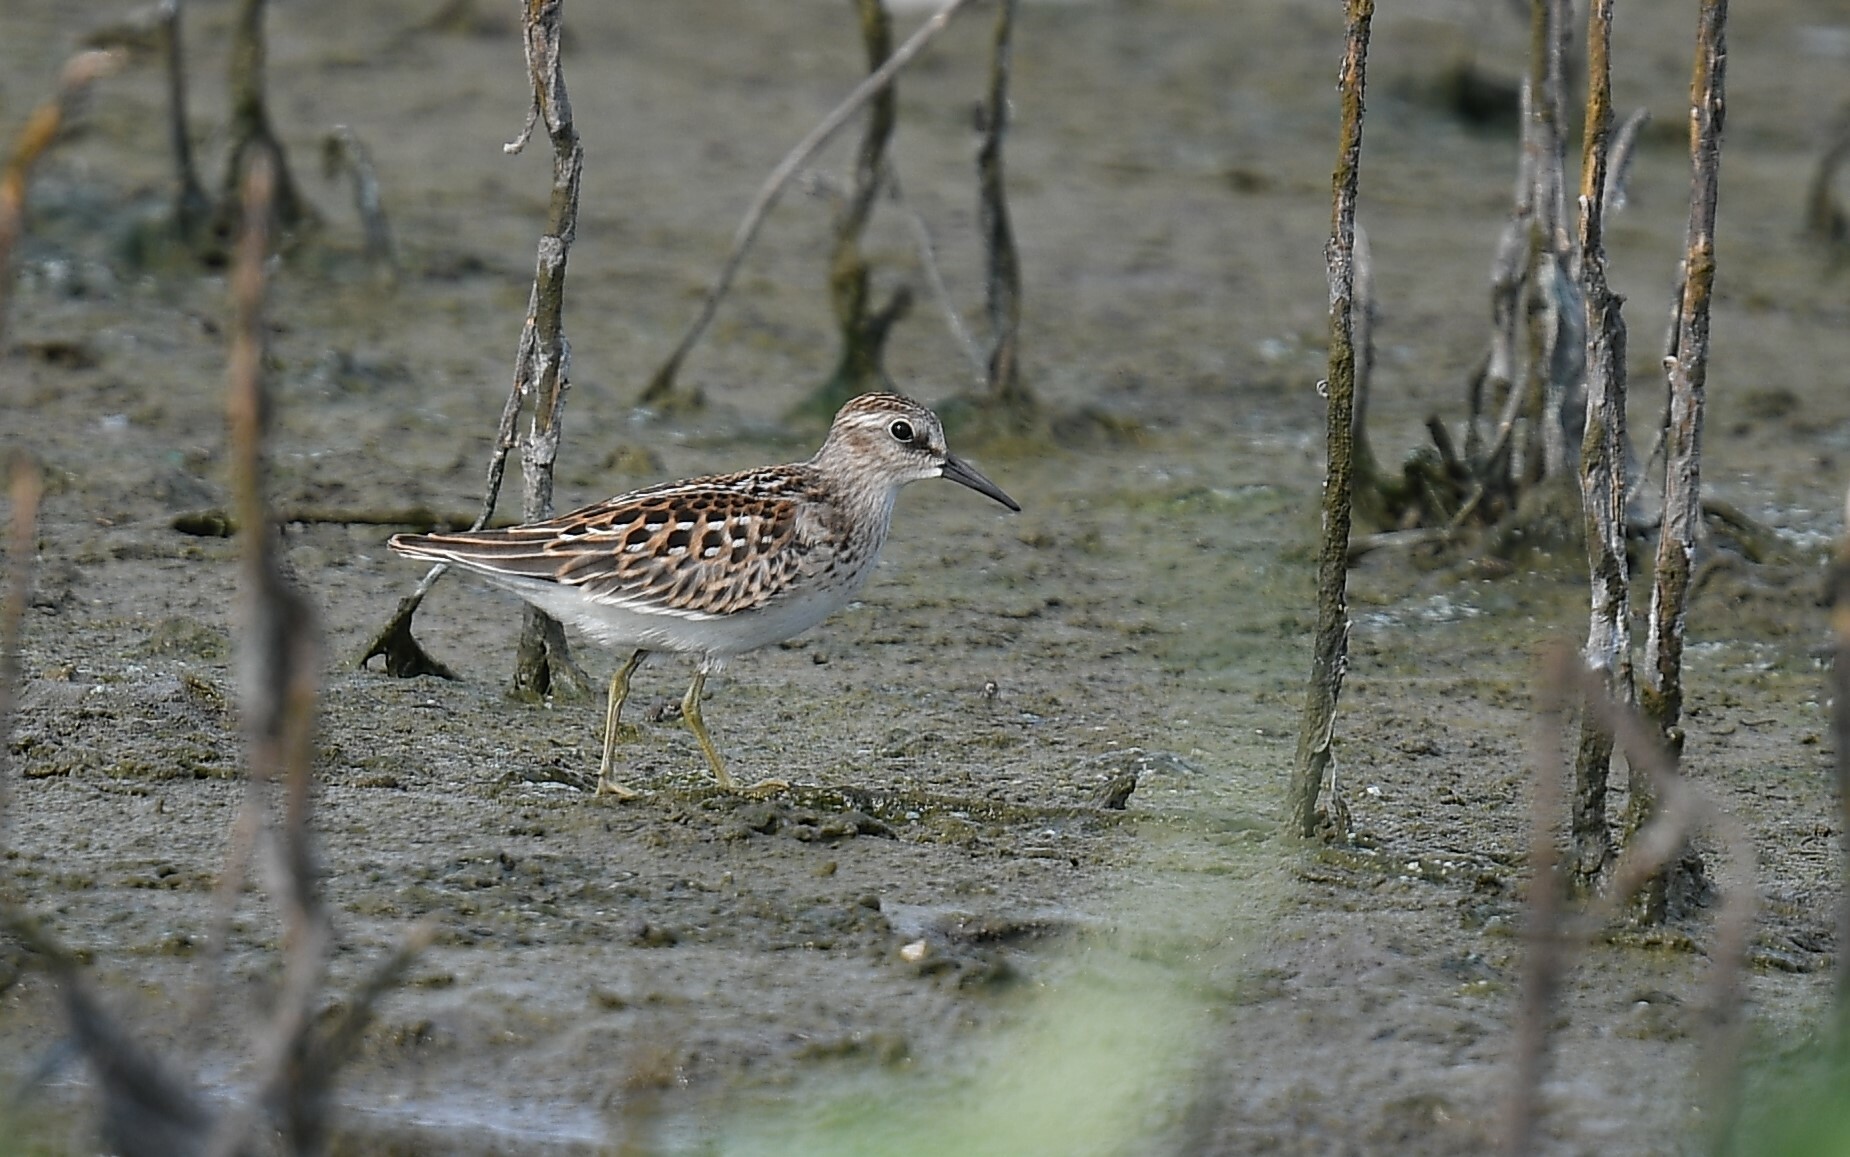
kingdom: Animalia
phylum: Chordata
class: Aves
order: Charadriiformes
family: Scolopacidae
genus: Calidris
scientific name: Calidris minutilla
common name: Least sandpiper
